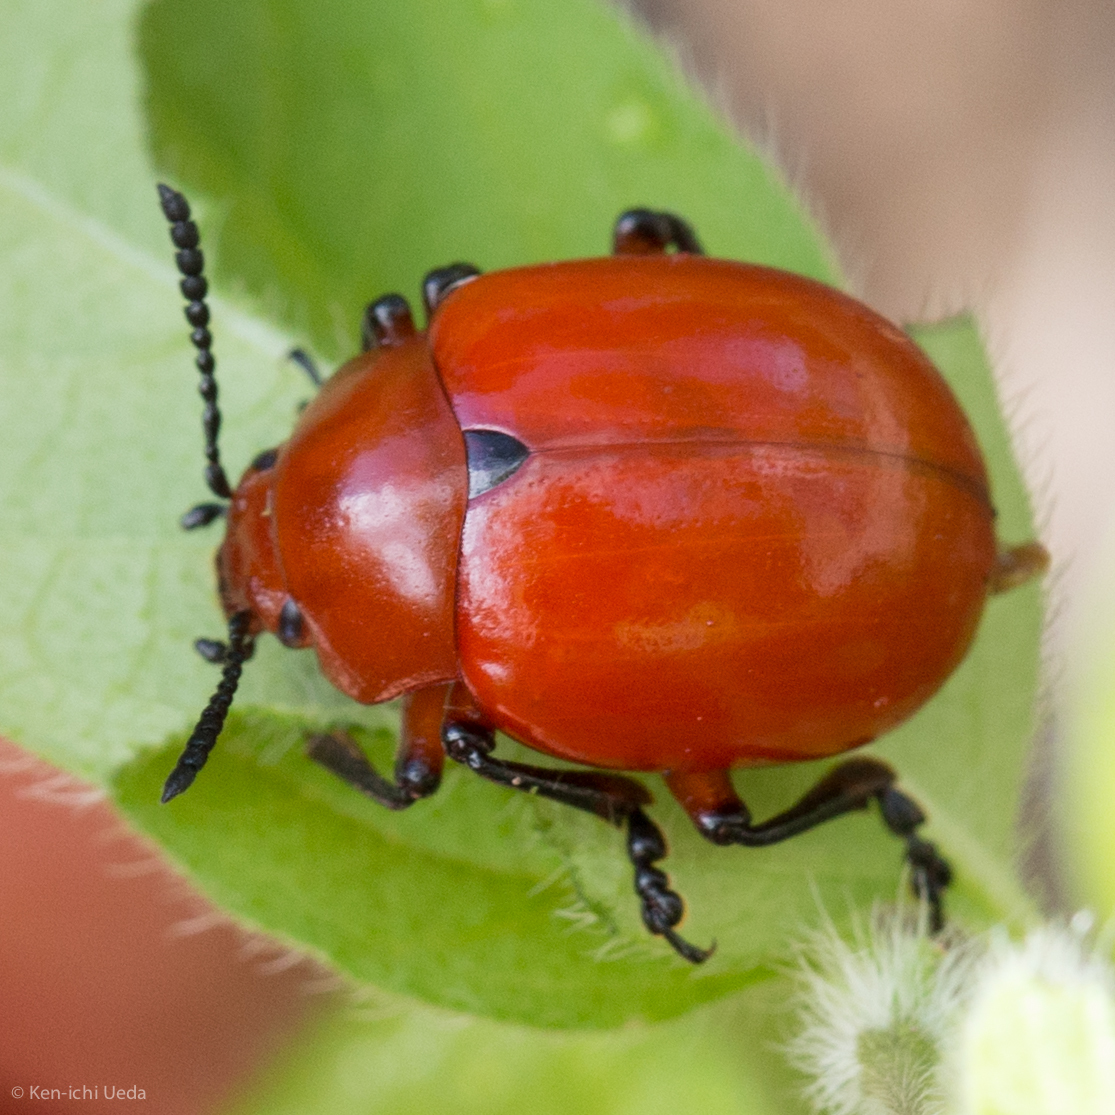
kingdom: Animalia
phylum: Arthropoda
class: Insecta
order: Coleoptera
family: Chrysomelidae
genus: Leptinotarsa
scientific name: Leptinotarsa rubiginosa
